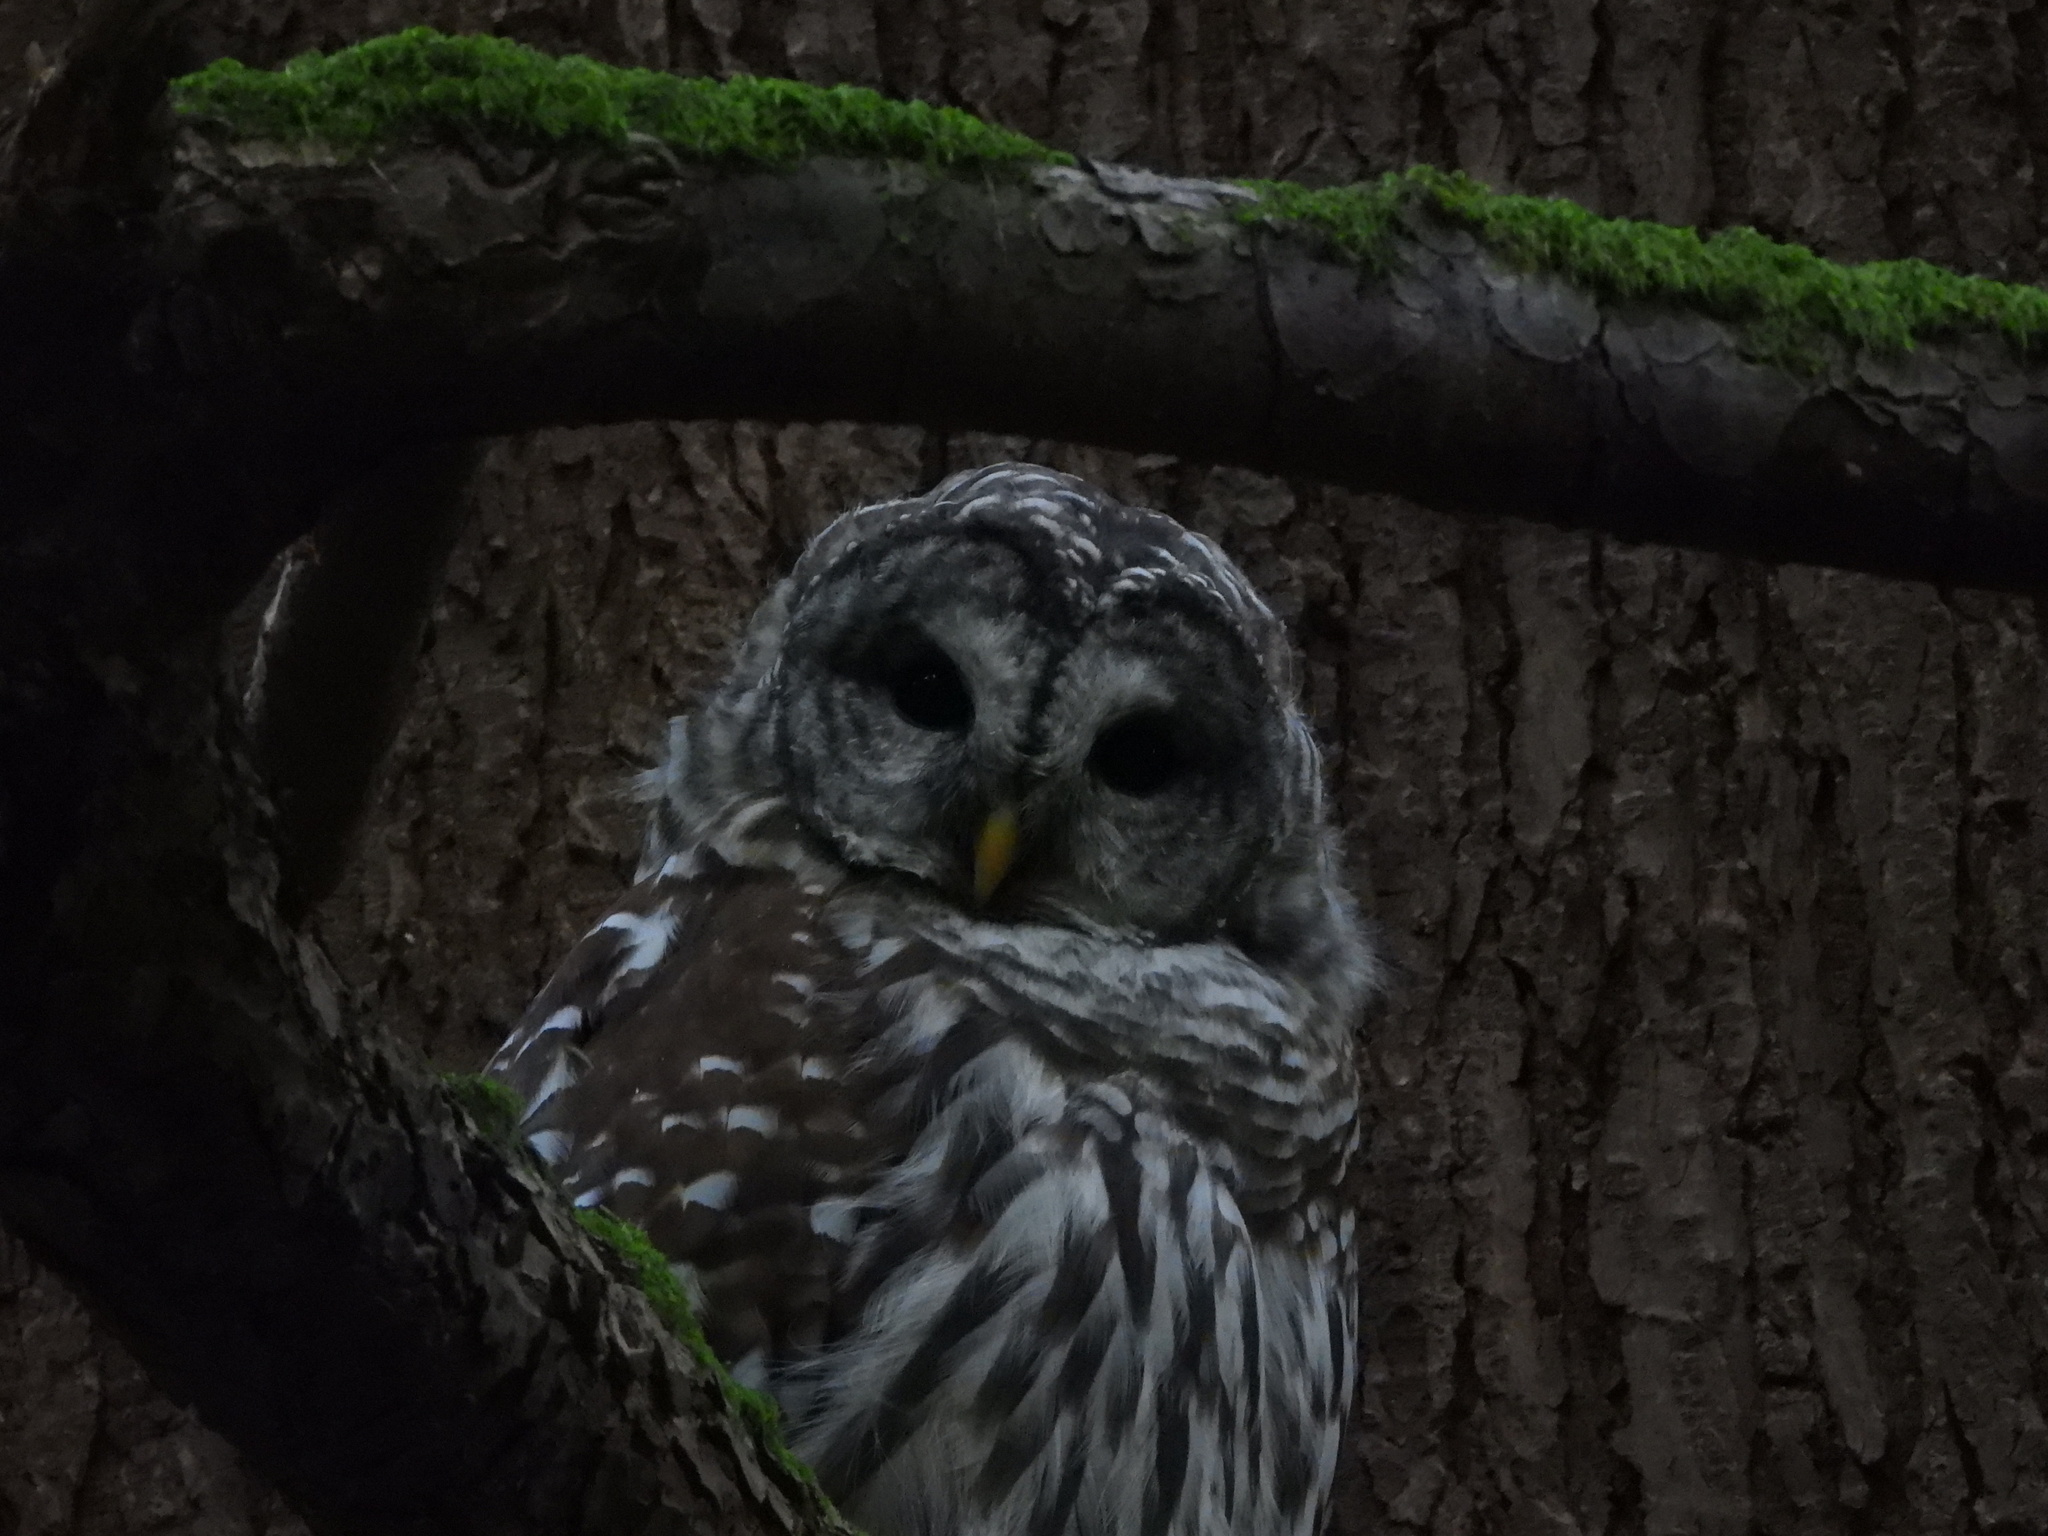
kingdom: Animalia
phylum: Chordata
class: Aves
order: Strigiformes
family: Strigidae
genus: Strix
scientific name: Strix varia
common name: Barred owl
